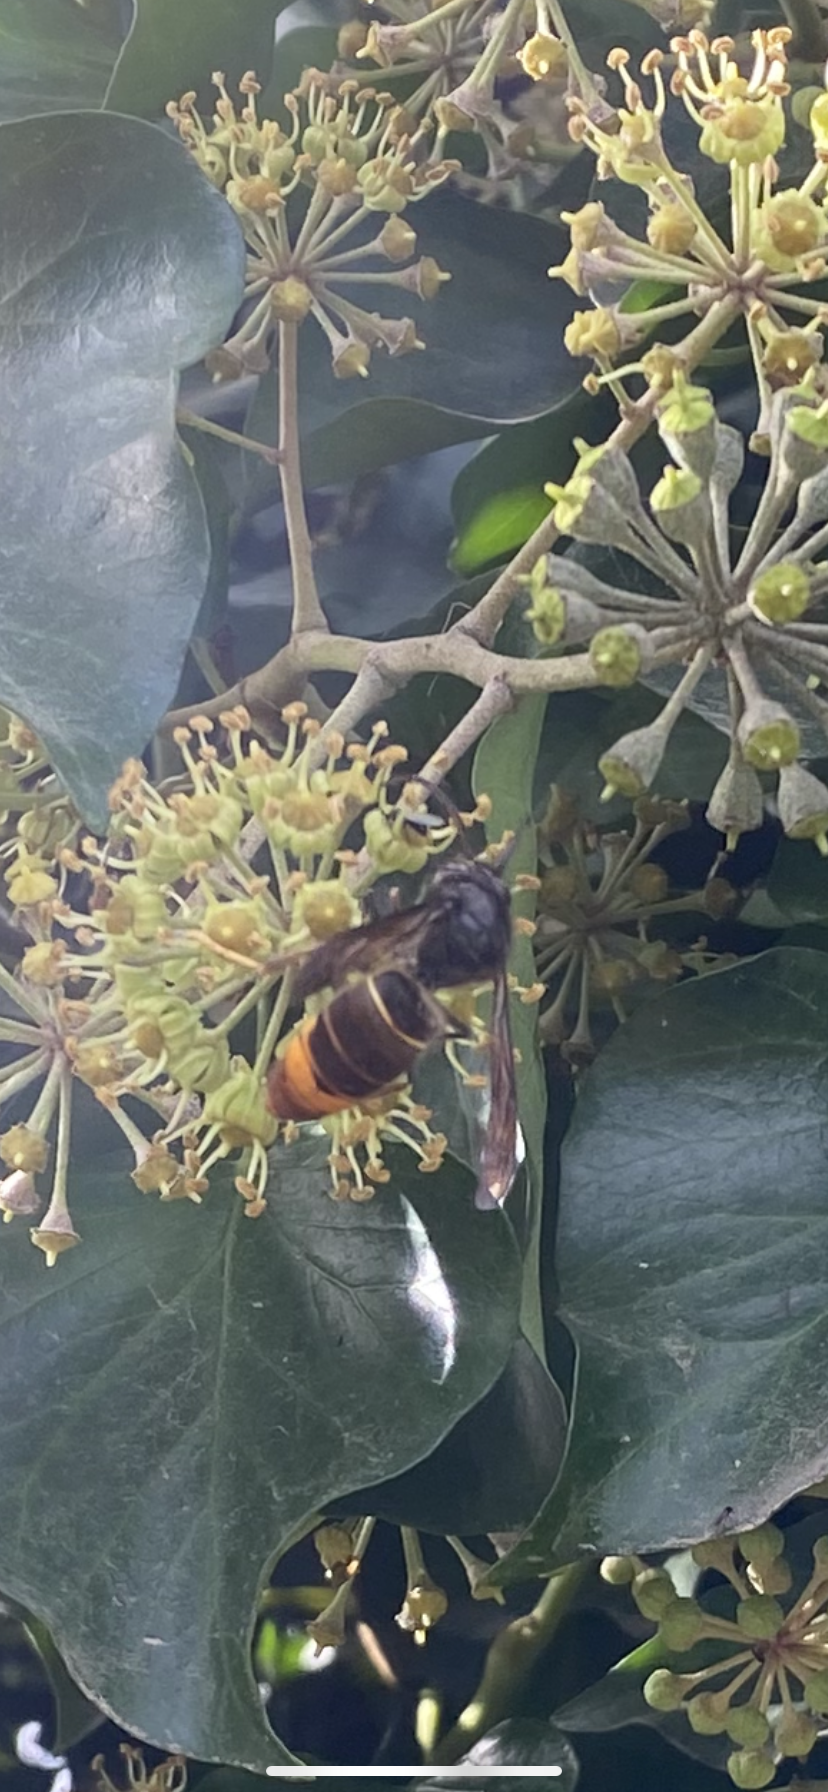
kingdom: Animalia
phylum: Arthropoda
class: Insecta
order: Hymenoptera
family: Vespidae
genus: Vespa
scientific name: Vespa velutina
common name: Asian hornet
